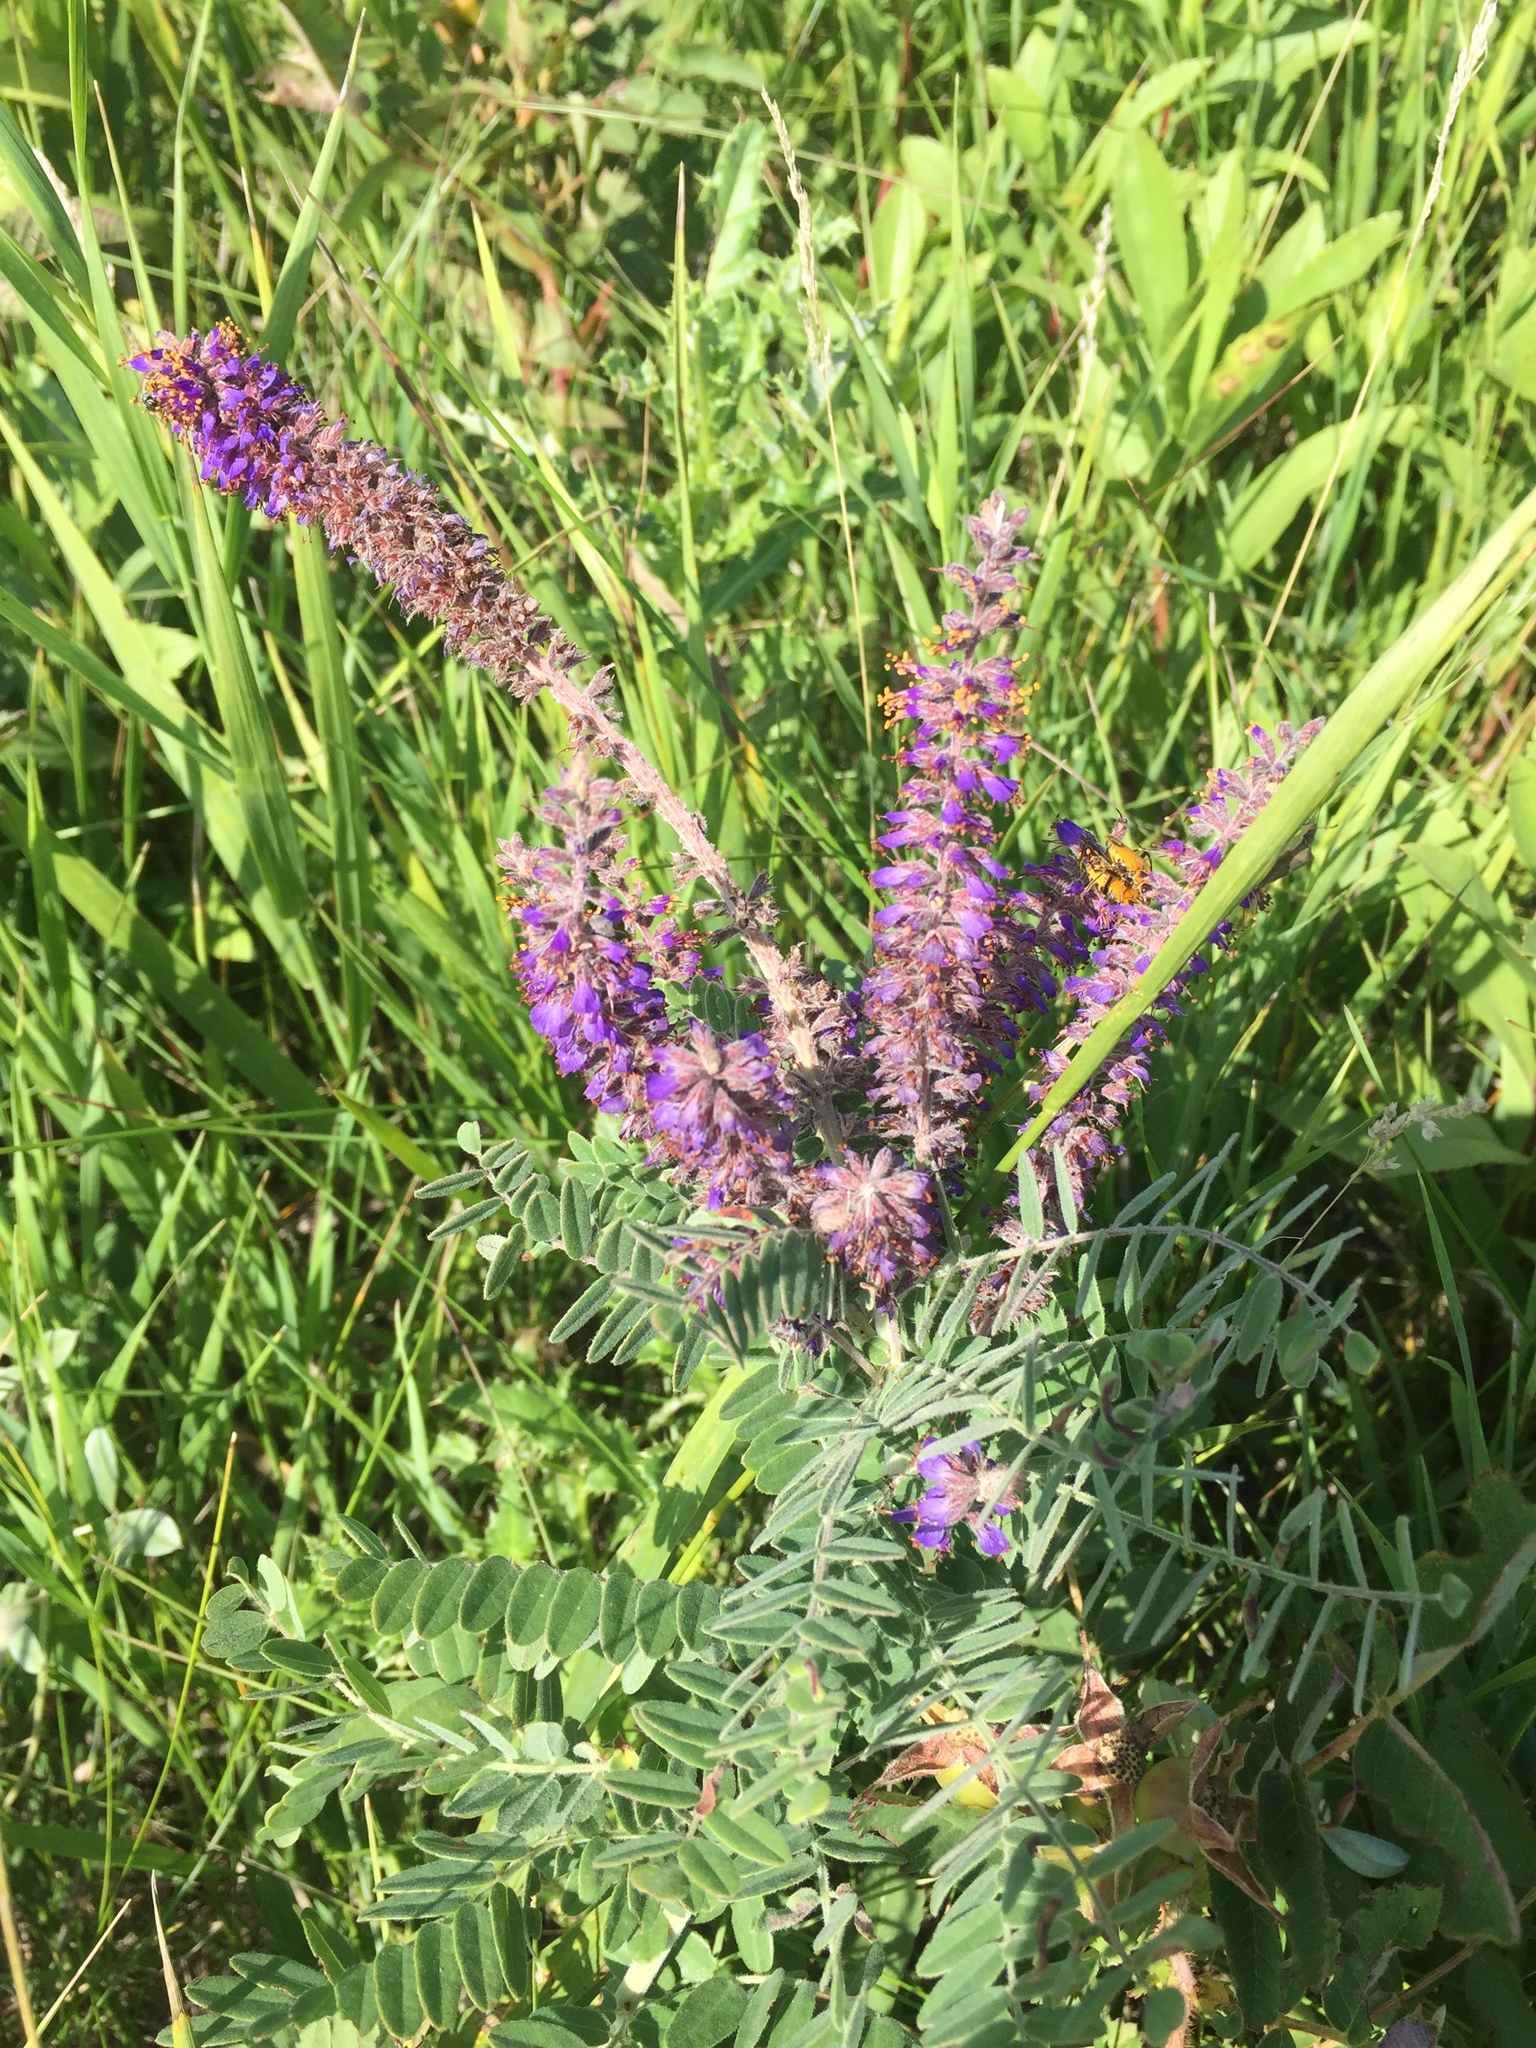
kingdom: Plantae
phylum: Tracheophyta
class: Magnoliopsida
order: Fabales
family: Fabaceae
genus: Amorpha
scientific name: Amorpha canescens
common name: Leadplant
